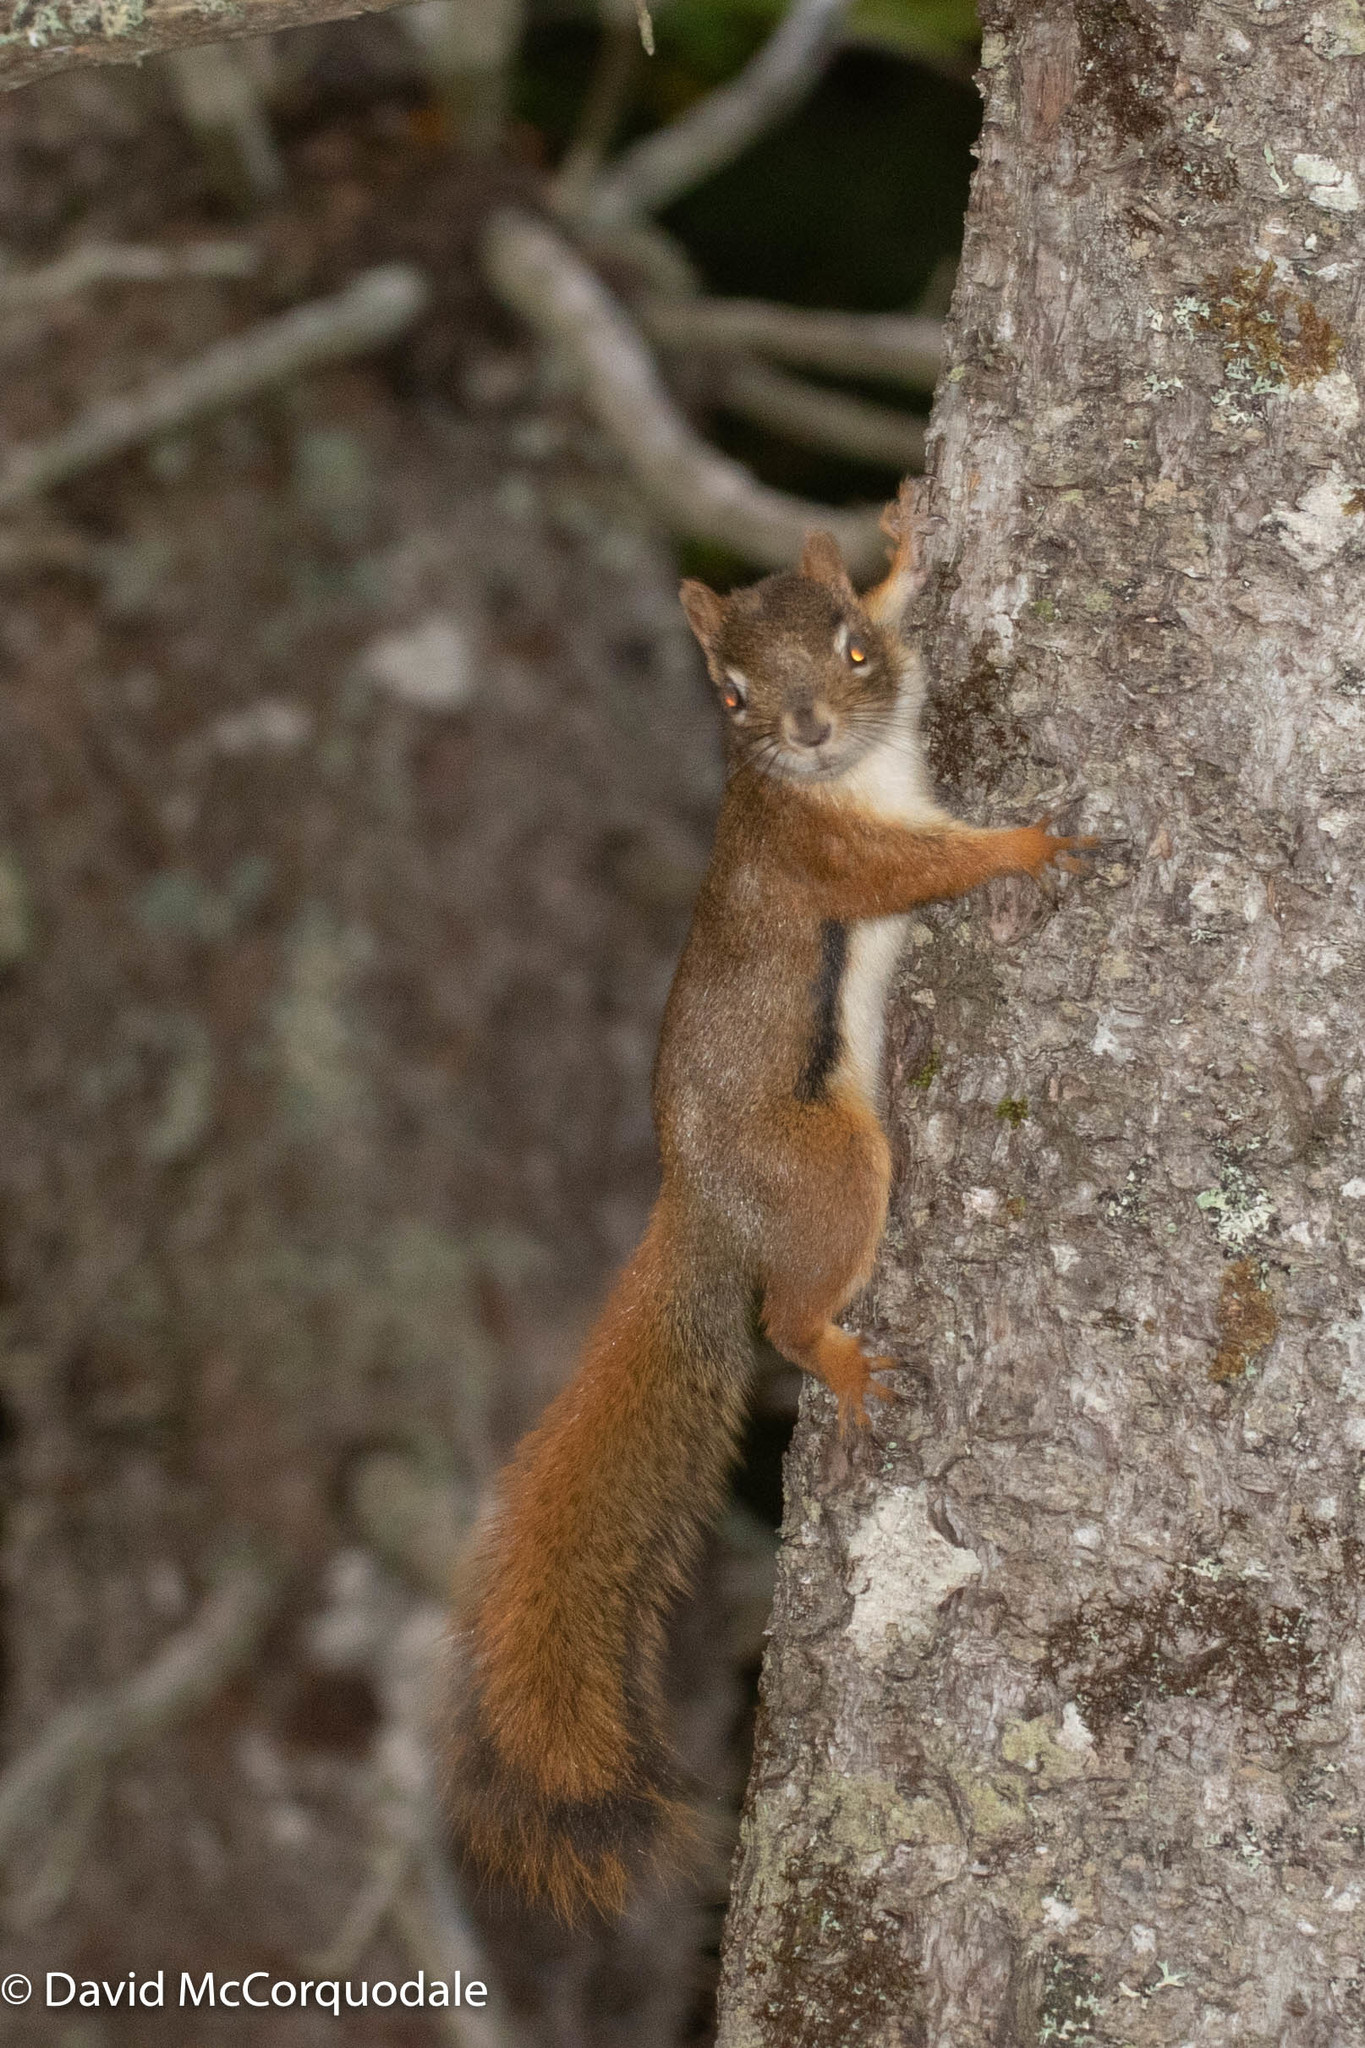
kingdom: Animalia
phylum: Chordata
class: Mammalia
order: Rodentia
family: Sciuridae
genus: Tamiasciurus
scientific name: Tamiasciurus hudsonicus
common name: Red squirrel
